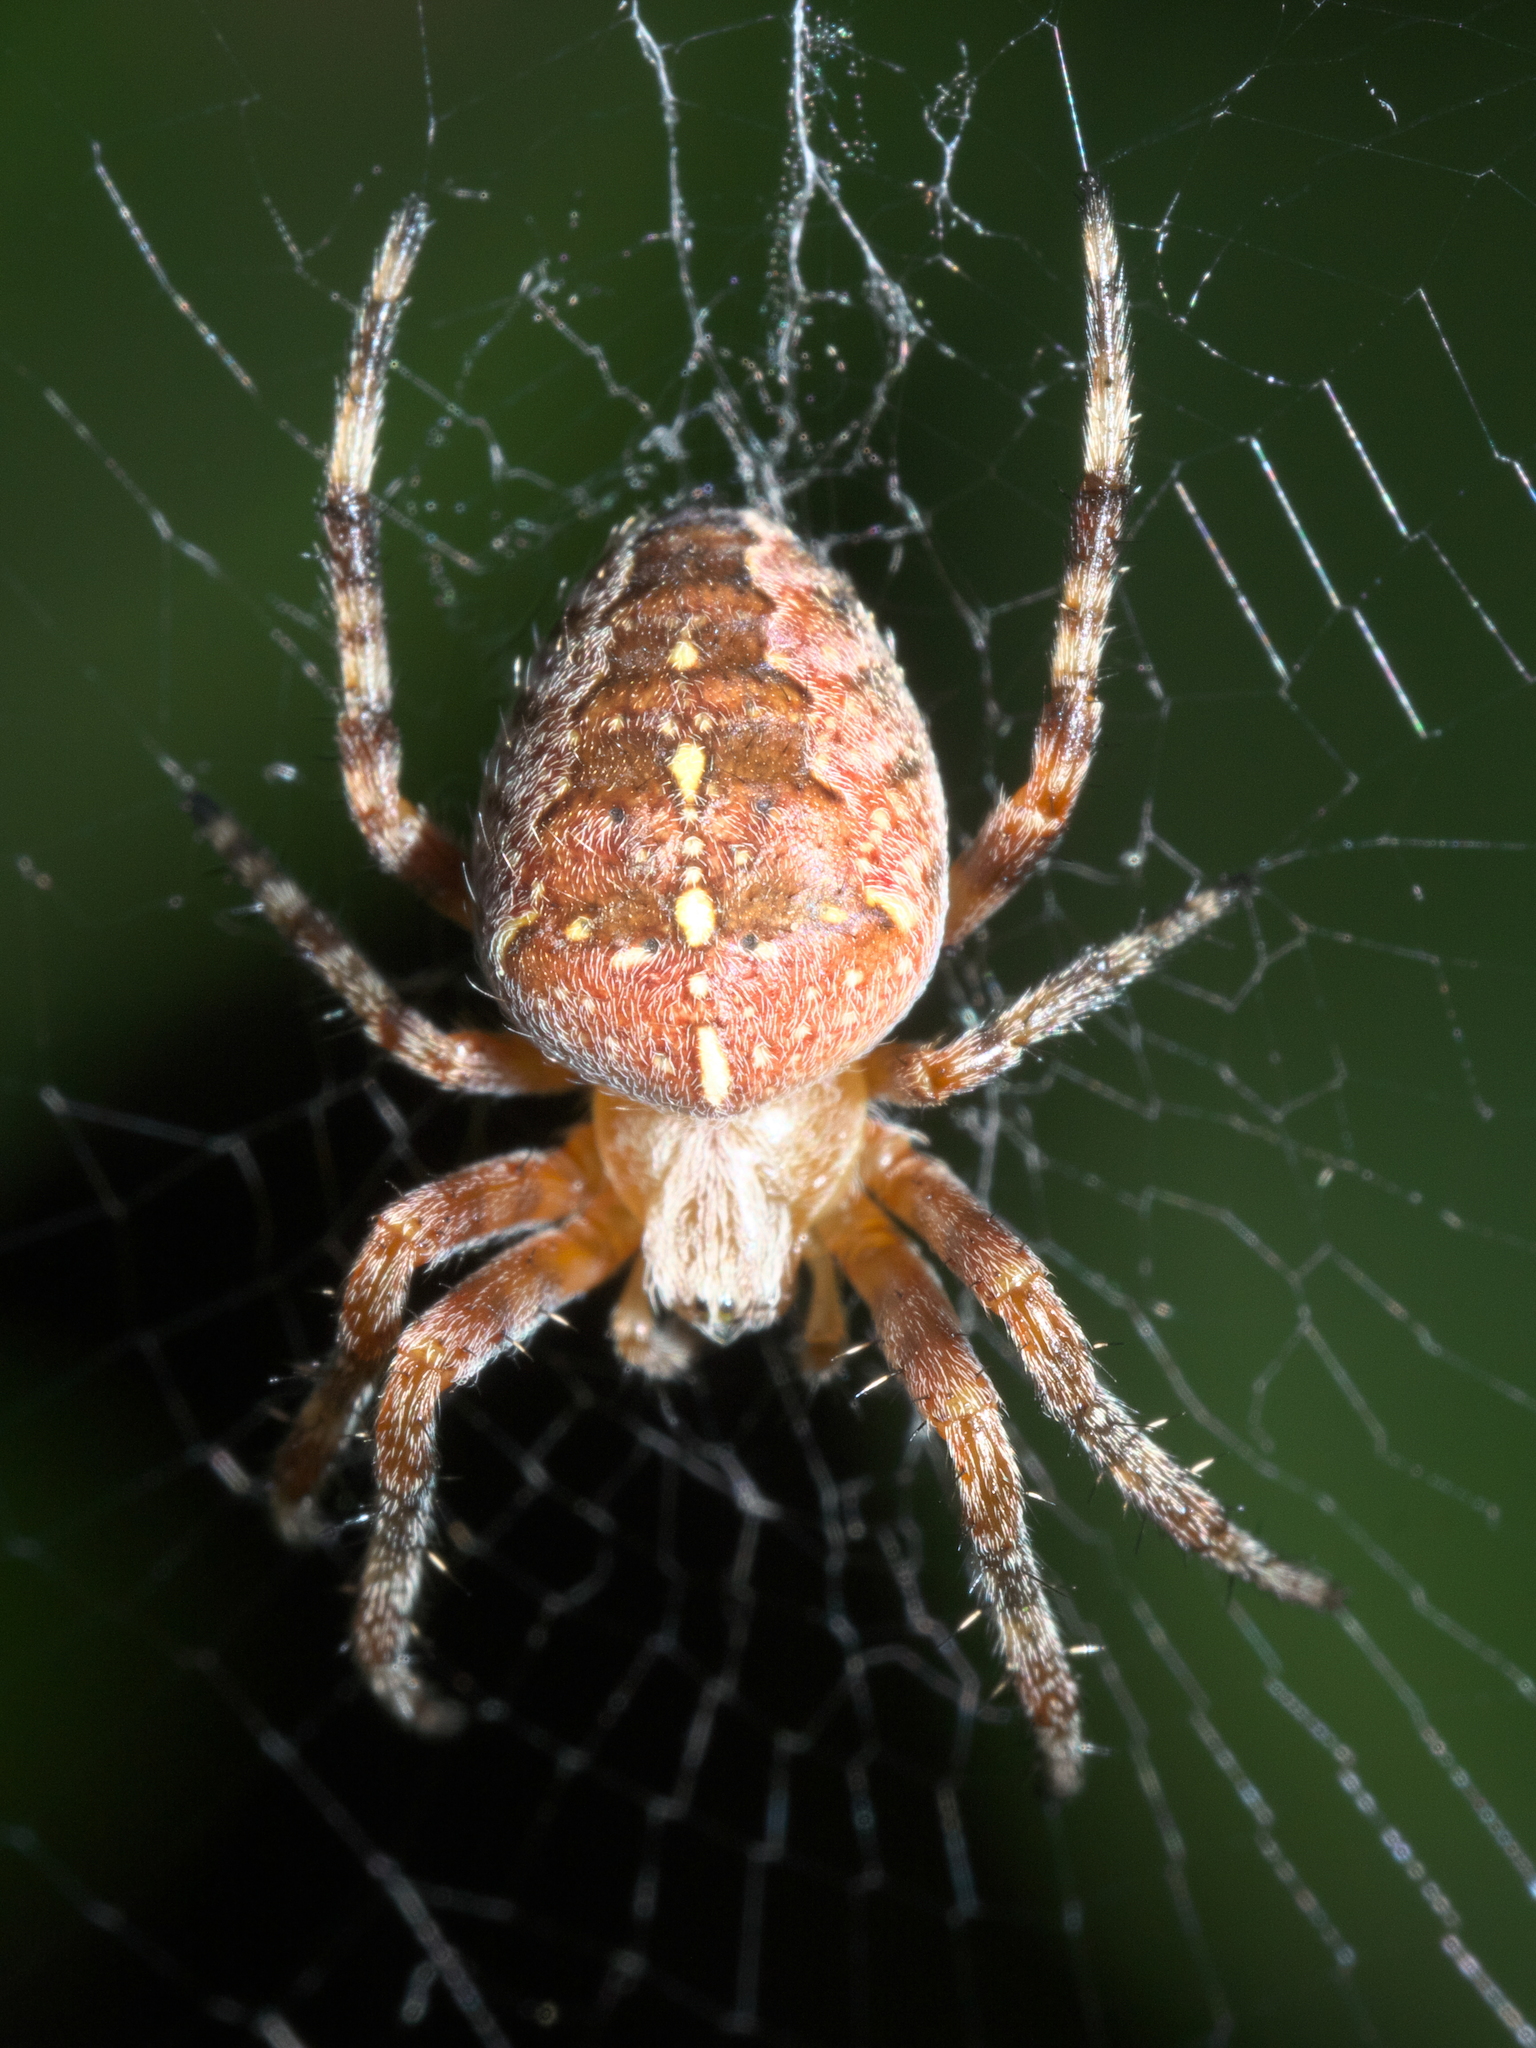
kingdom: Animalia
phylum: Arthropoda
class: Arachnida
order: Araneae
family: Araneidae
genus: Araneus
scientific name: Araneus diadematus
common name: Cross orbweaver
